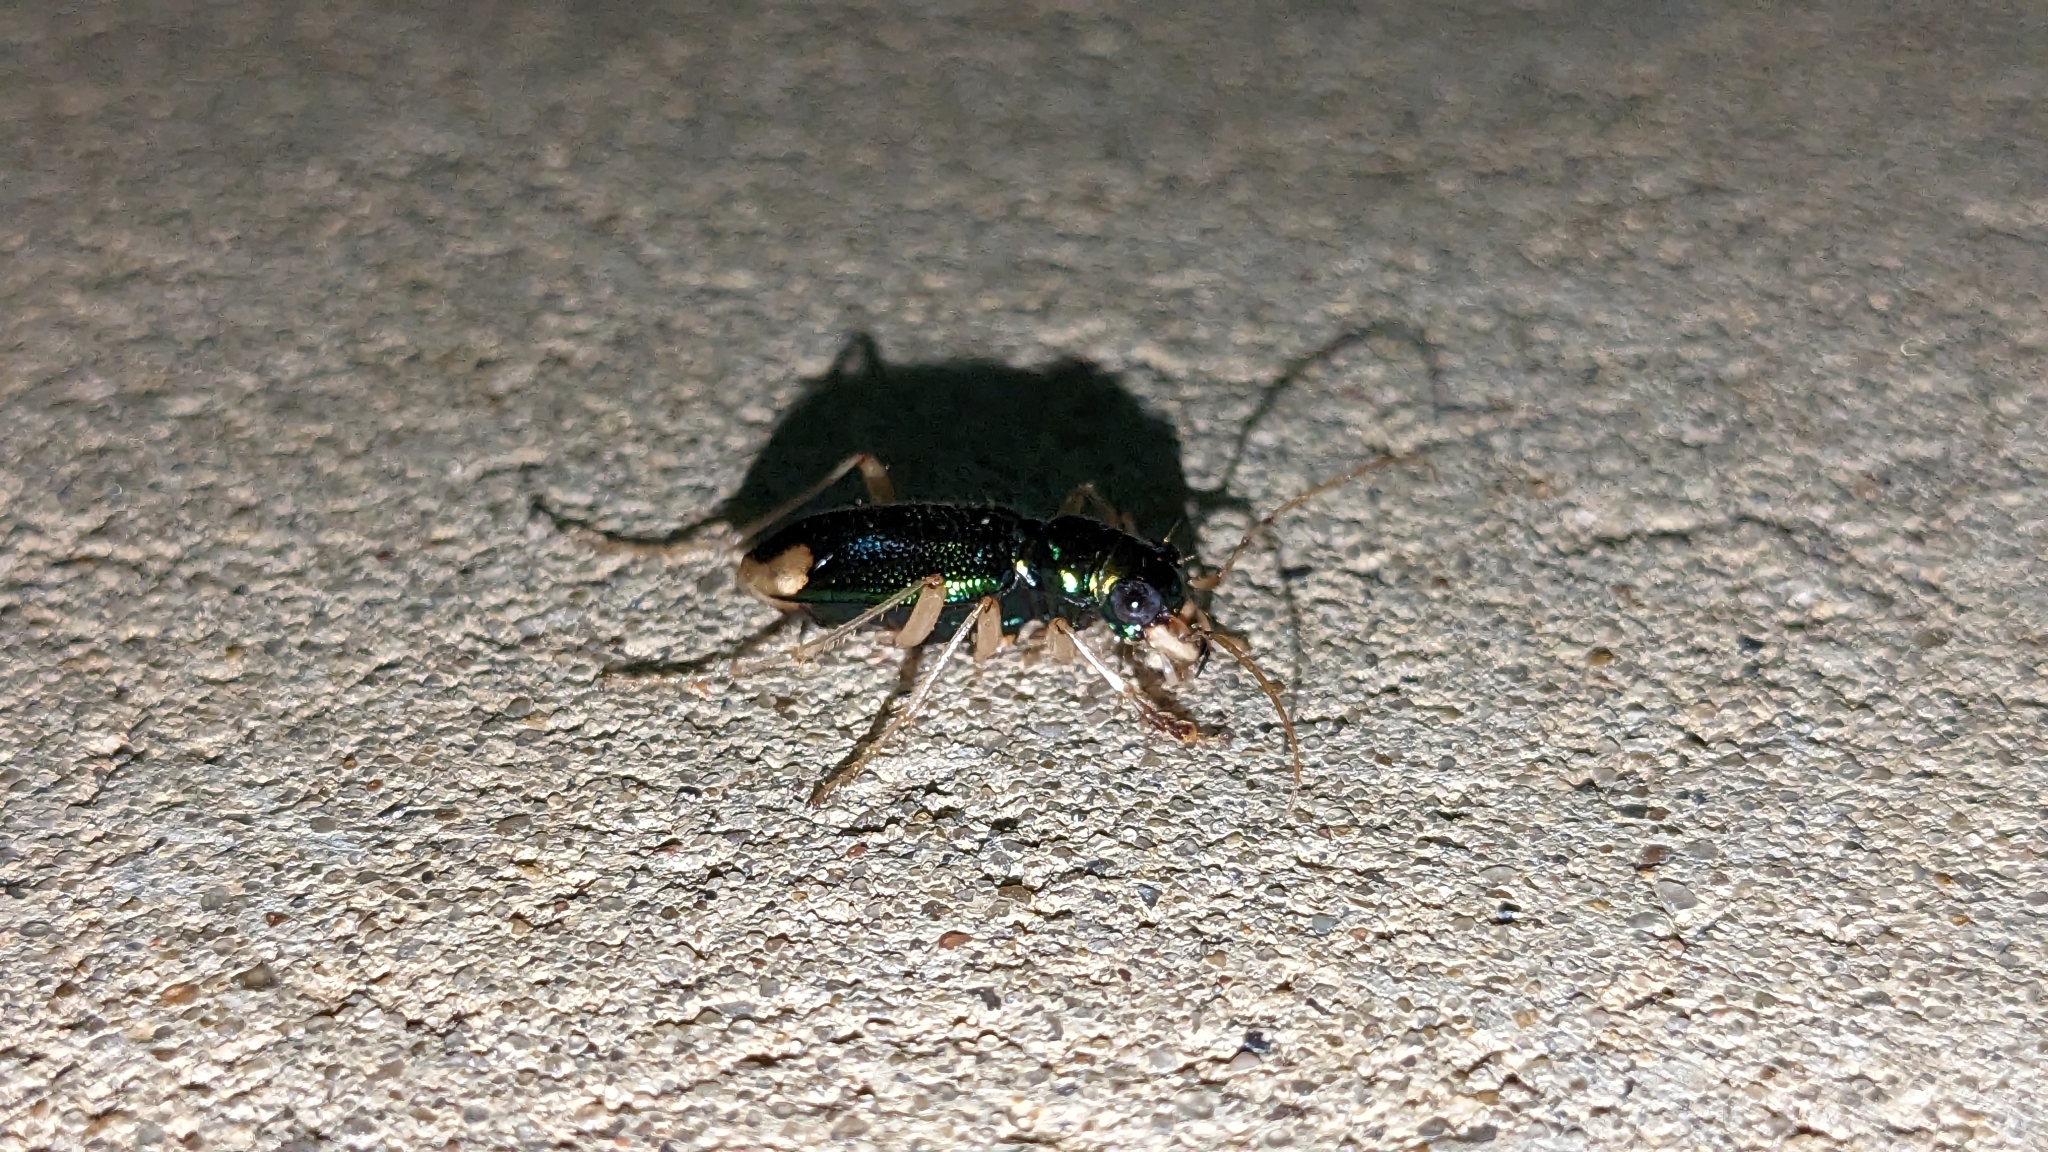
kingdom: Animalia
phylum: Arthropoda
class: Insecta
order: Coleoptera
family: Carabidae
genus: Tetracha
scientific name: Tetracha carolina
